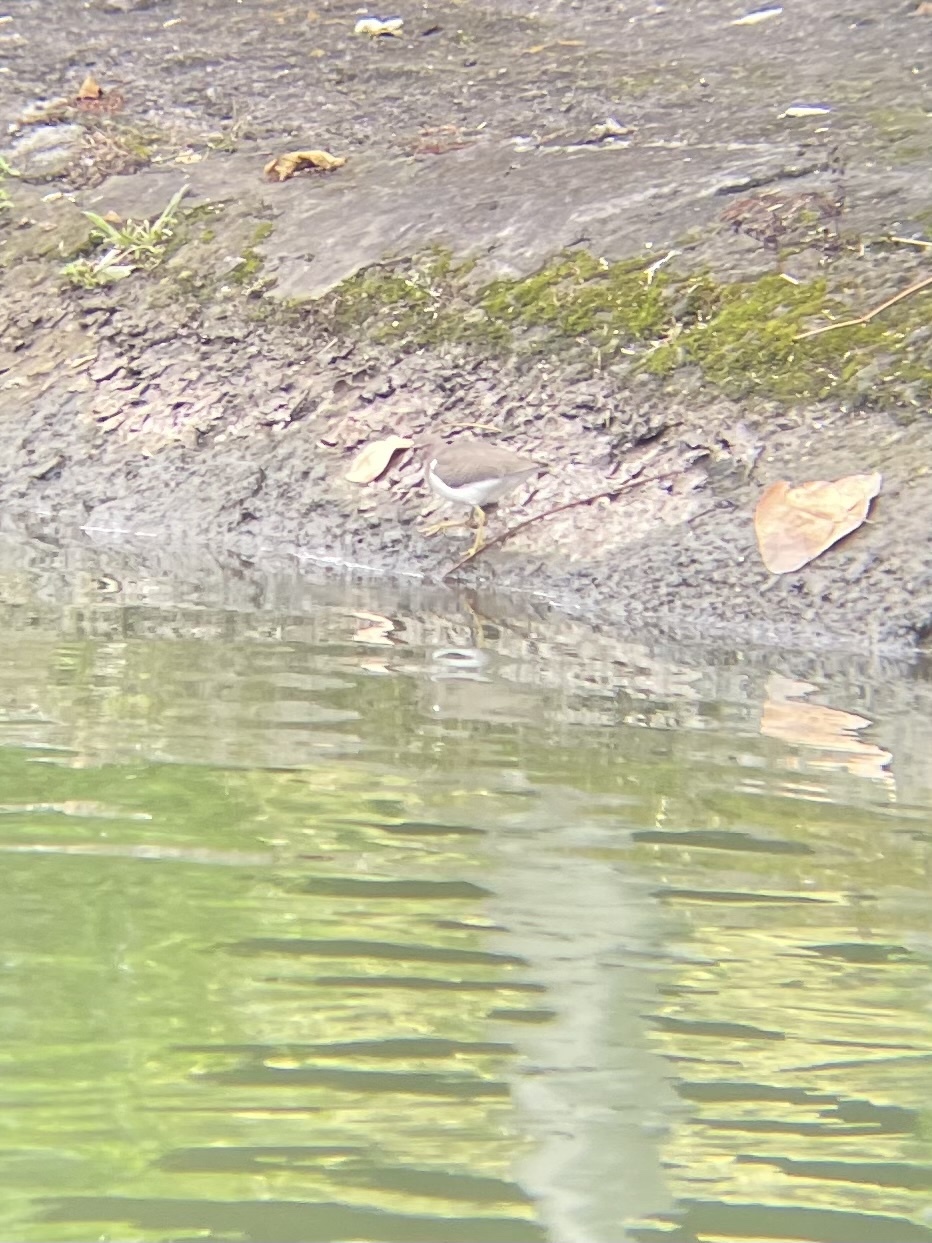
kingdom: Animalia
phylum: Chordata
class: Aves
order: Charadriiformes
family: Scolopacidae
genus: Actitis
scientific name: Actitis macularius
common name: Spotted sandpiper
